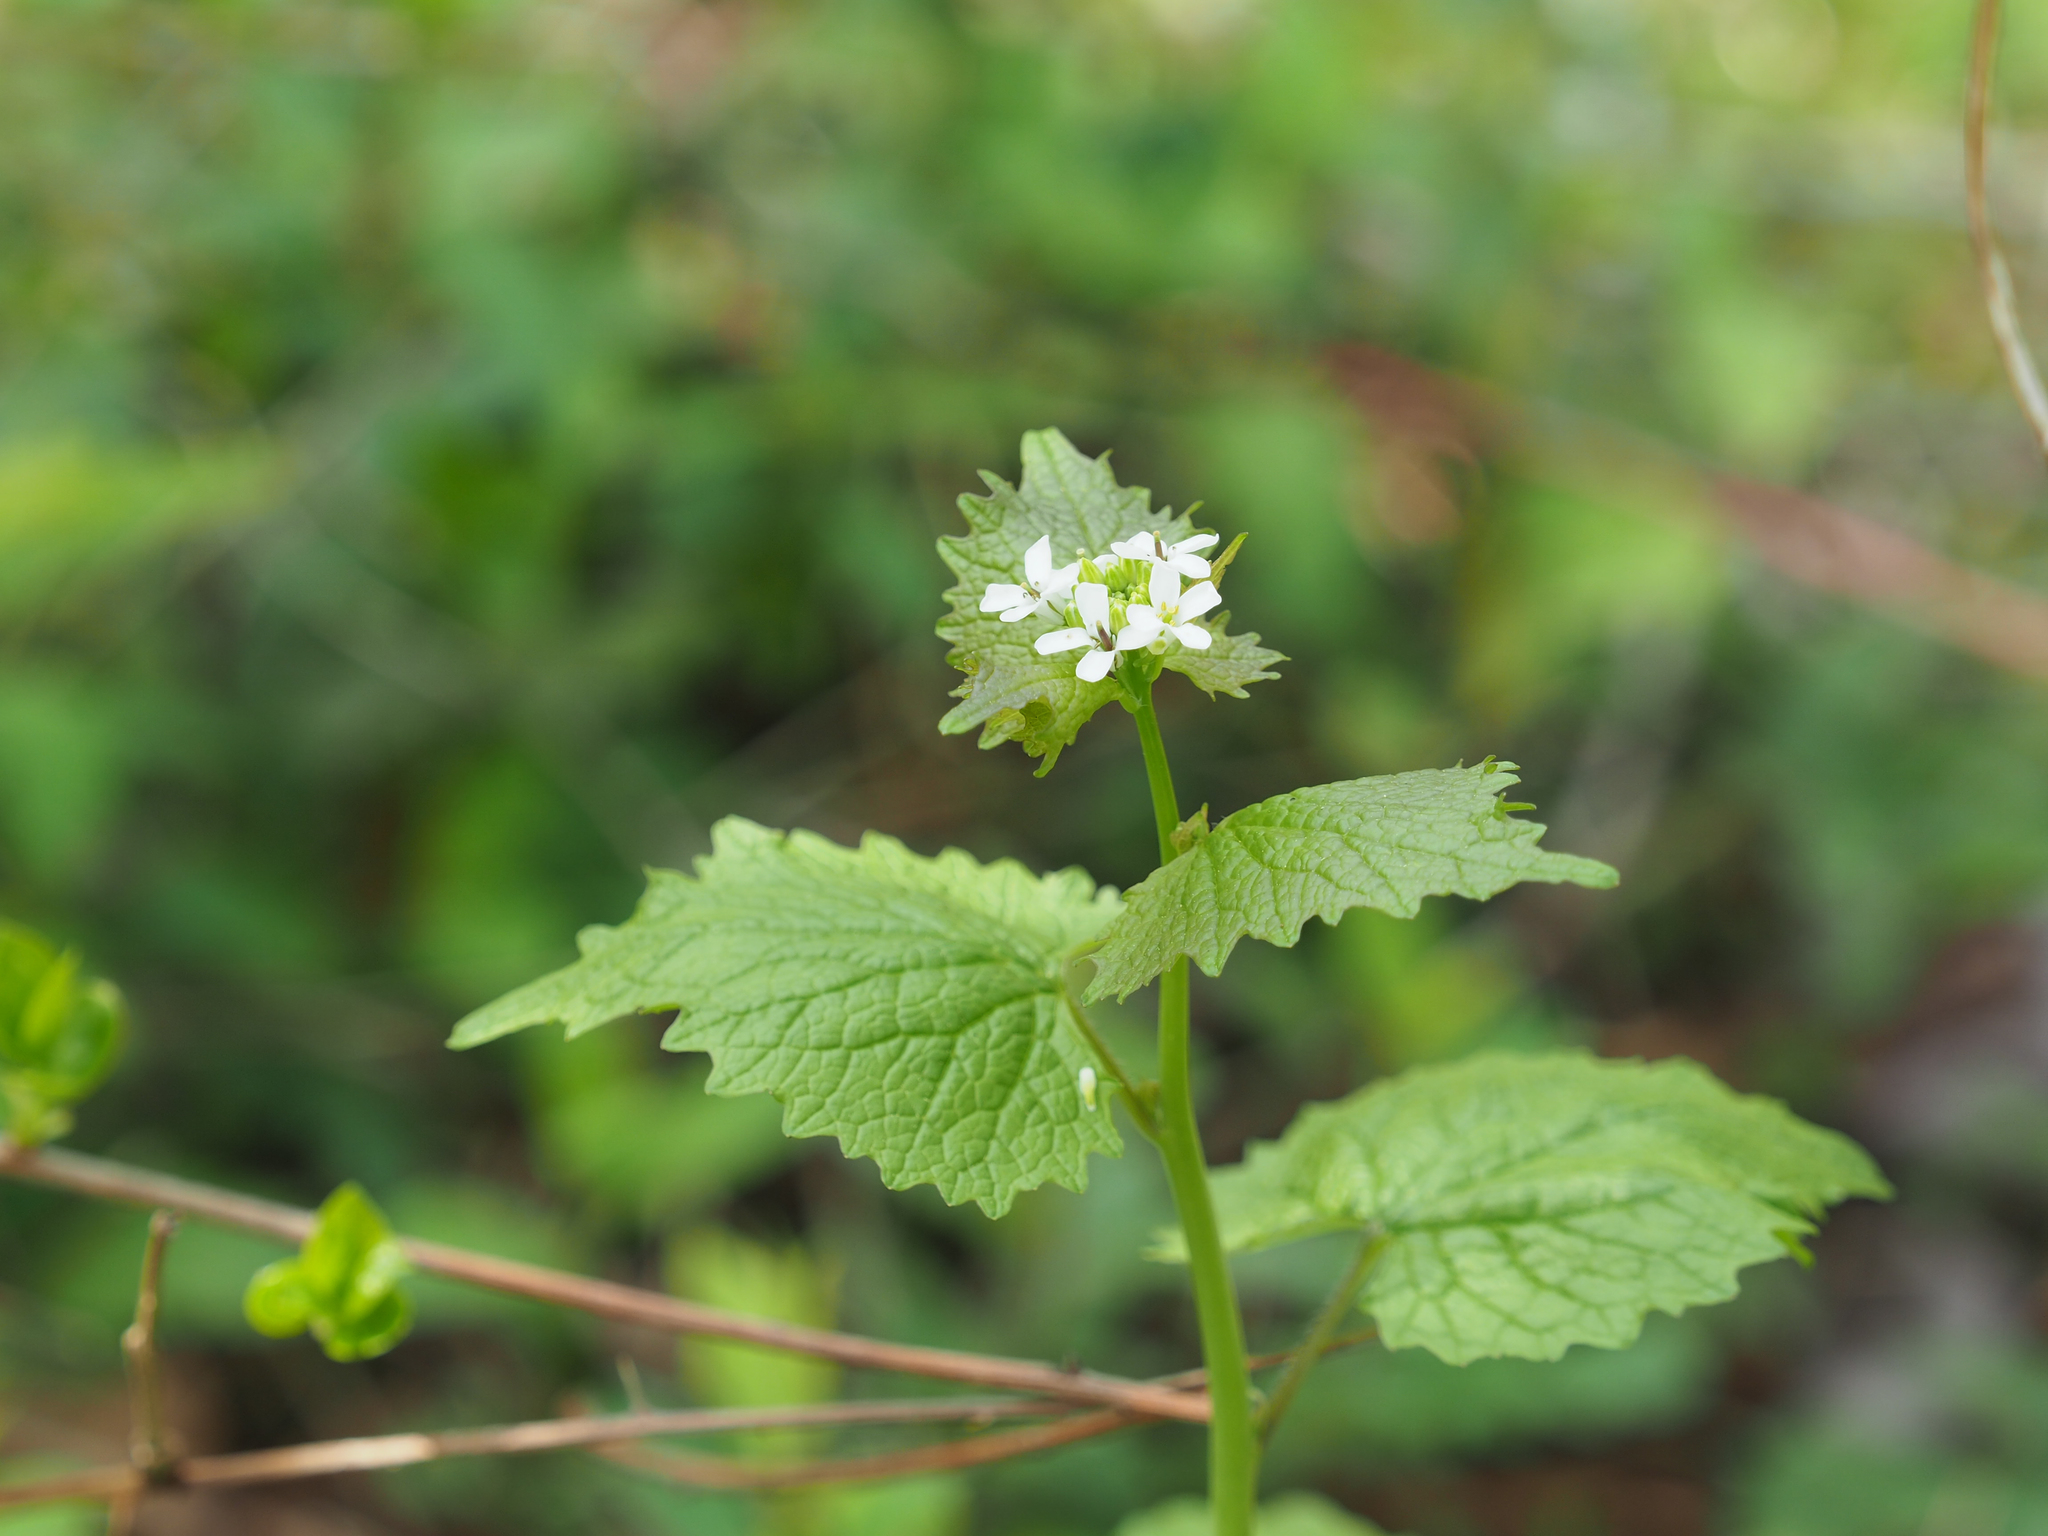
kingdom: Plantae
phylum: Tracheophyta
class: Magnoliopsida
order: Brassicales
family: Brassicaceae
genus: Alliaria
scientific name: Alliaria petiolata
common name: Garlic mustard
